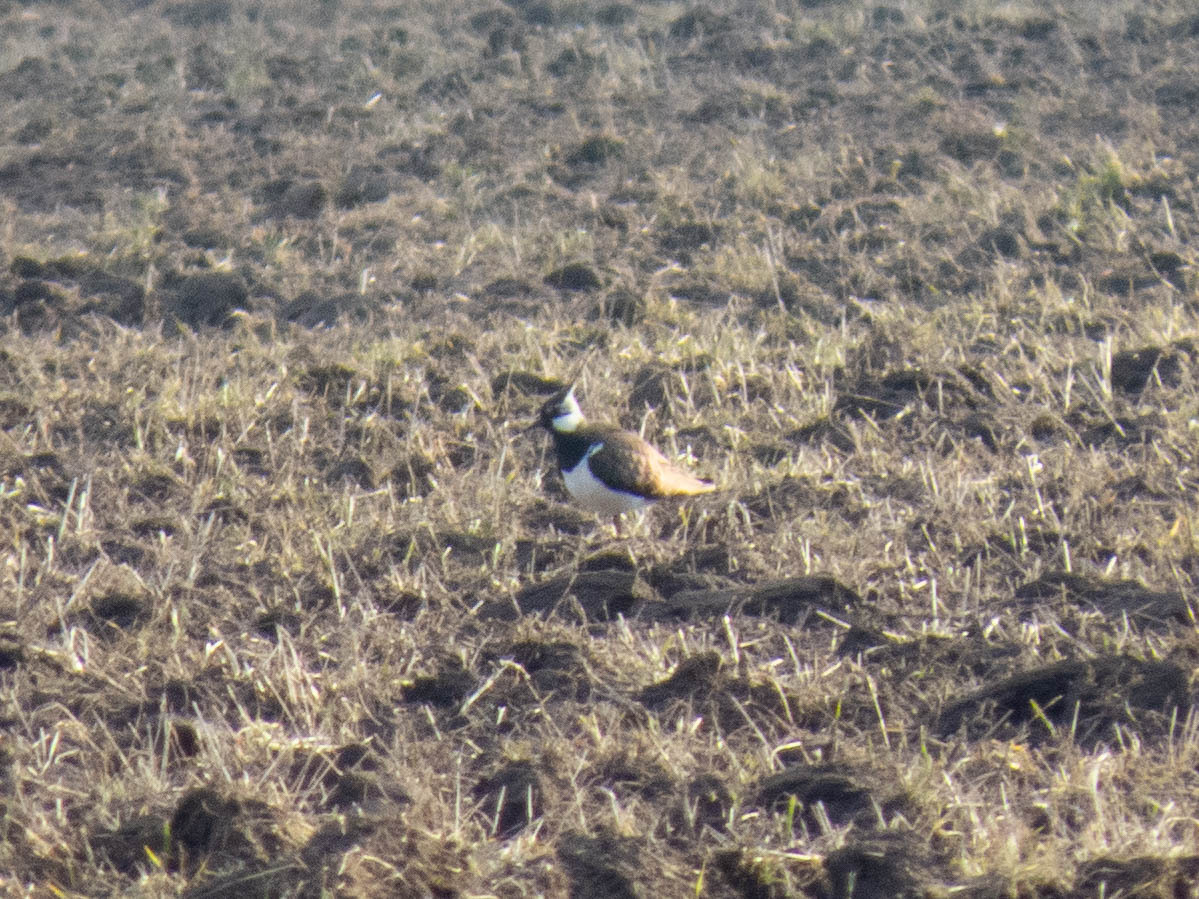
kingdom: Animalia
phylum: Chordata
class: Aves
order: Charadriiformes
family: Charadriidae
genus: Vanellus
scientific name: Vanellus vanellus
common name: Northern lapwing
